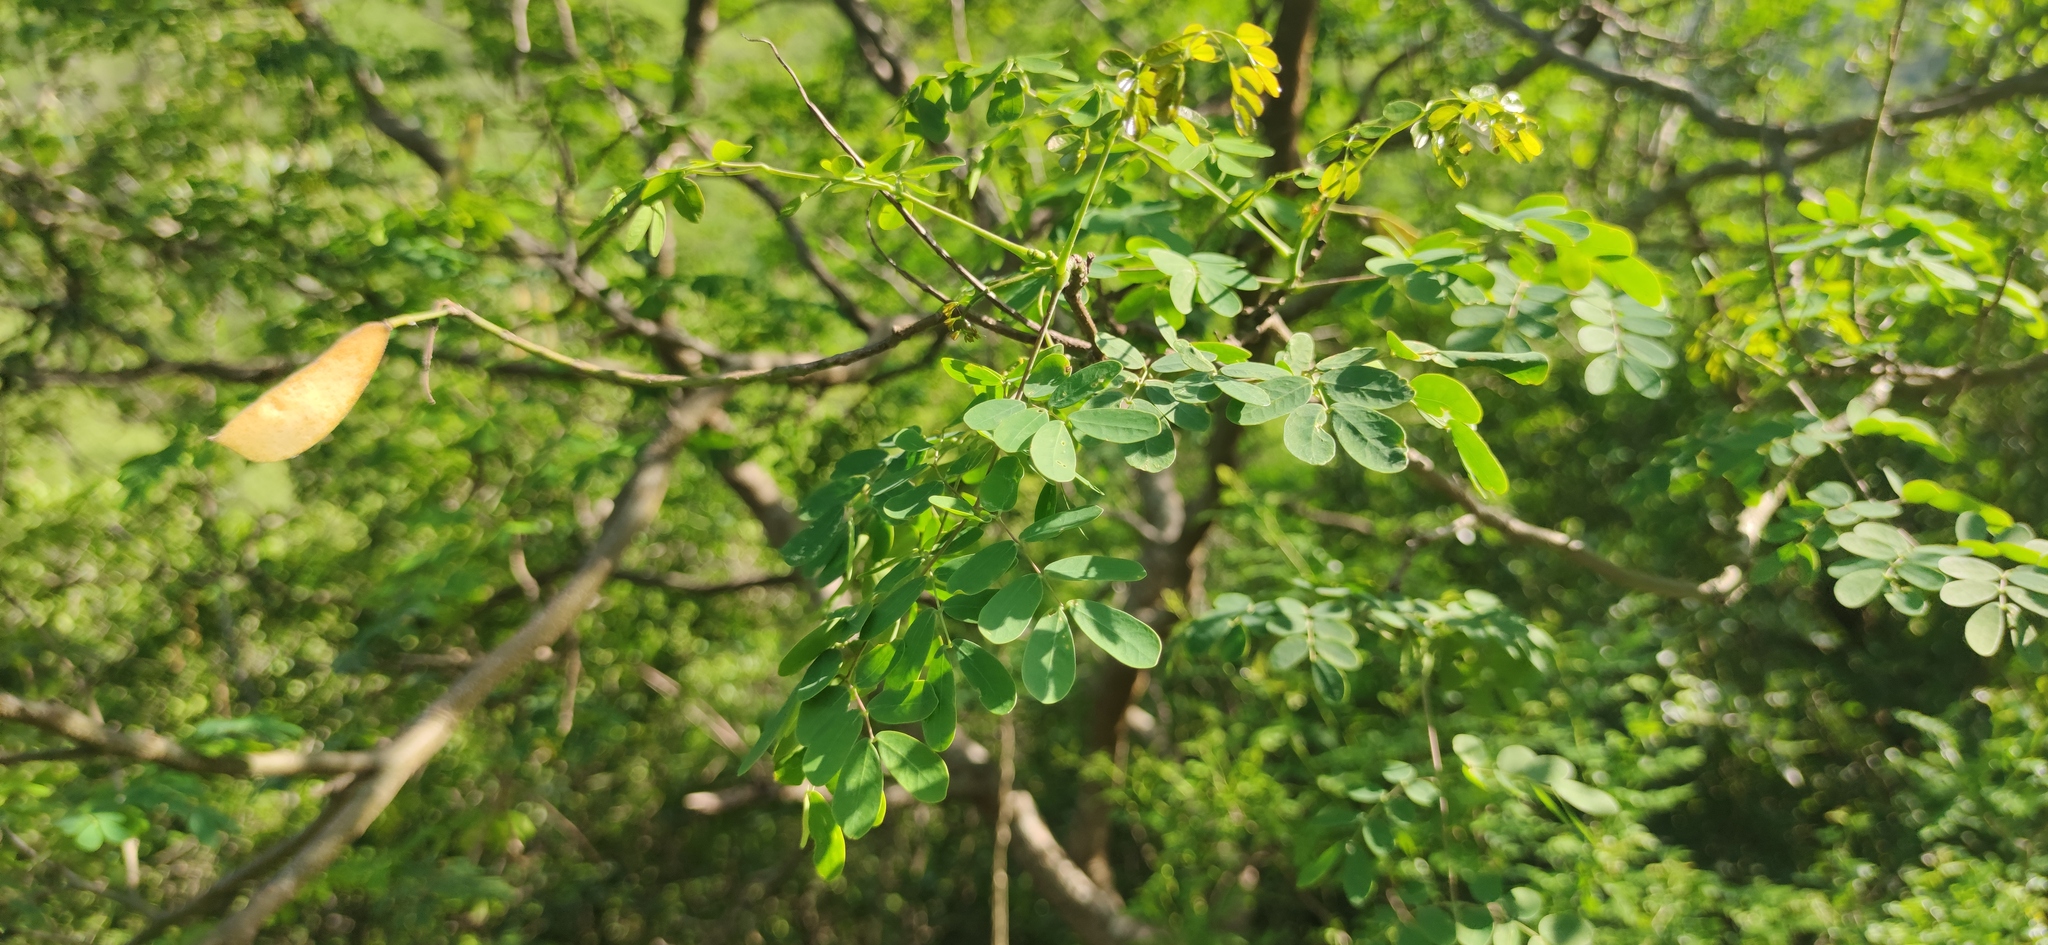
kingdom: Plantae
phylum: Tracheophyta
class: Magnoliopsida
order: Fabales
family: Fabaceae
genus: Erythrostemon
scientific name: Erythrostemon mexicanus
